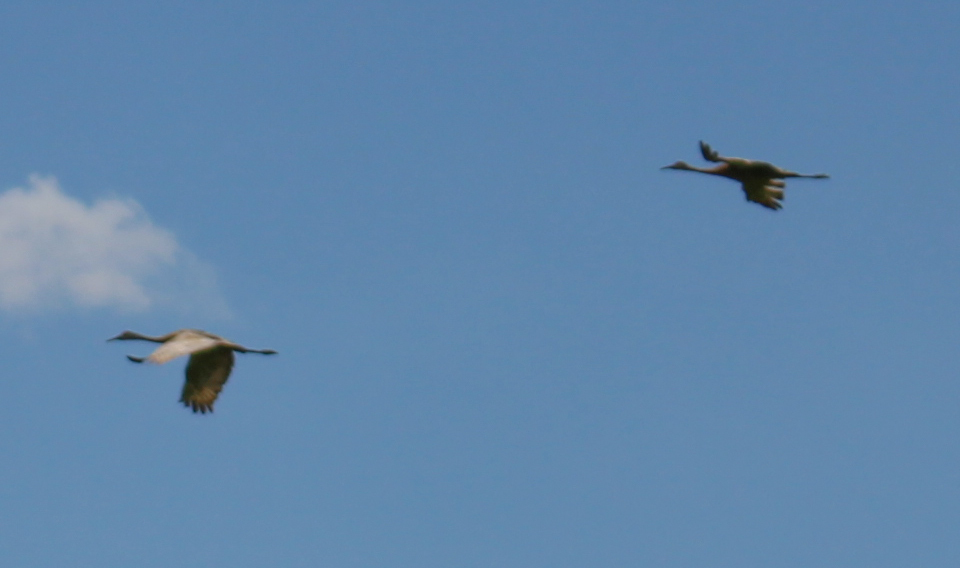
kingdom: Animalia
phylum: Chordata
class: Aves
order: Gruiformes
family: Gruidae
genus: Grus
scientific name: Grus canadensis
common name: Sandhill crane
